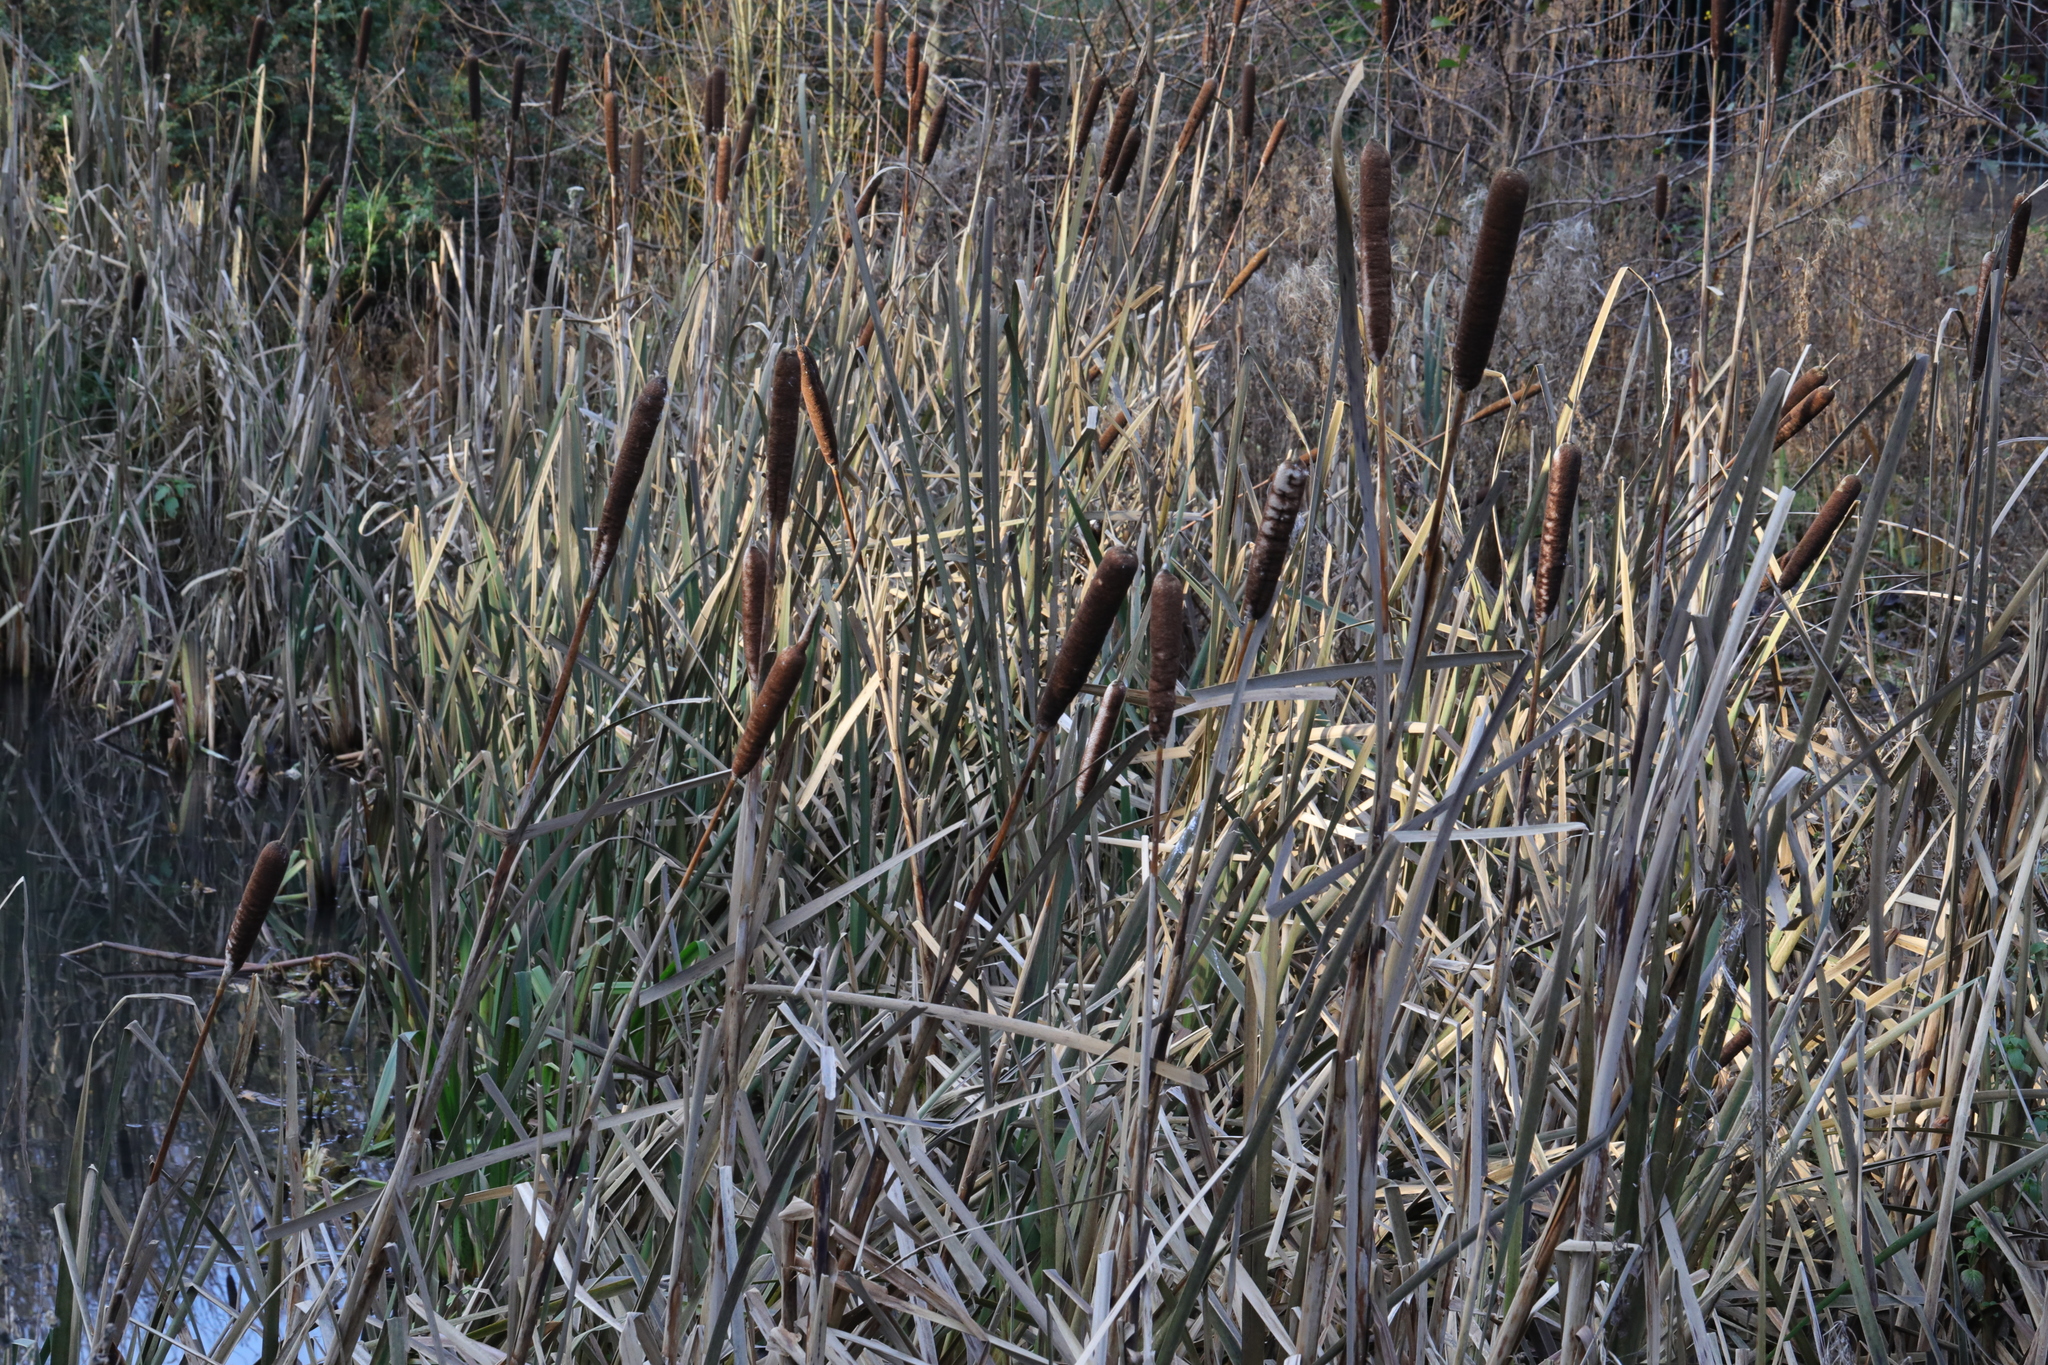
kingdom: Plantae
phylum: Tracheophyta
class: Liliopsida
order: Poales
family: Typhaceae
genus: Typha
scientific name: Typha latifolia
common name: Broadleaf cattail
